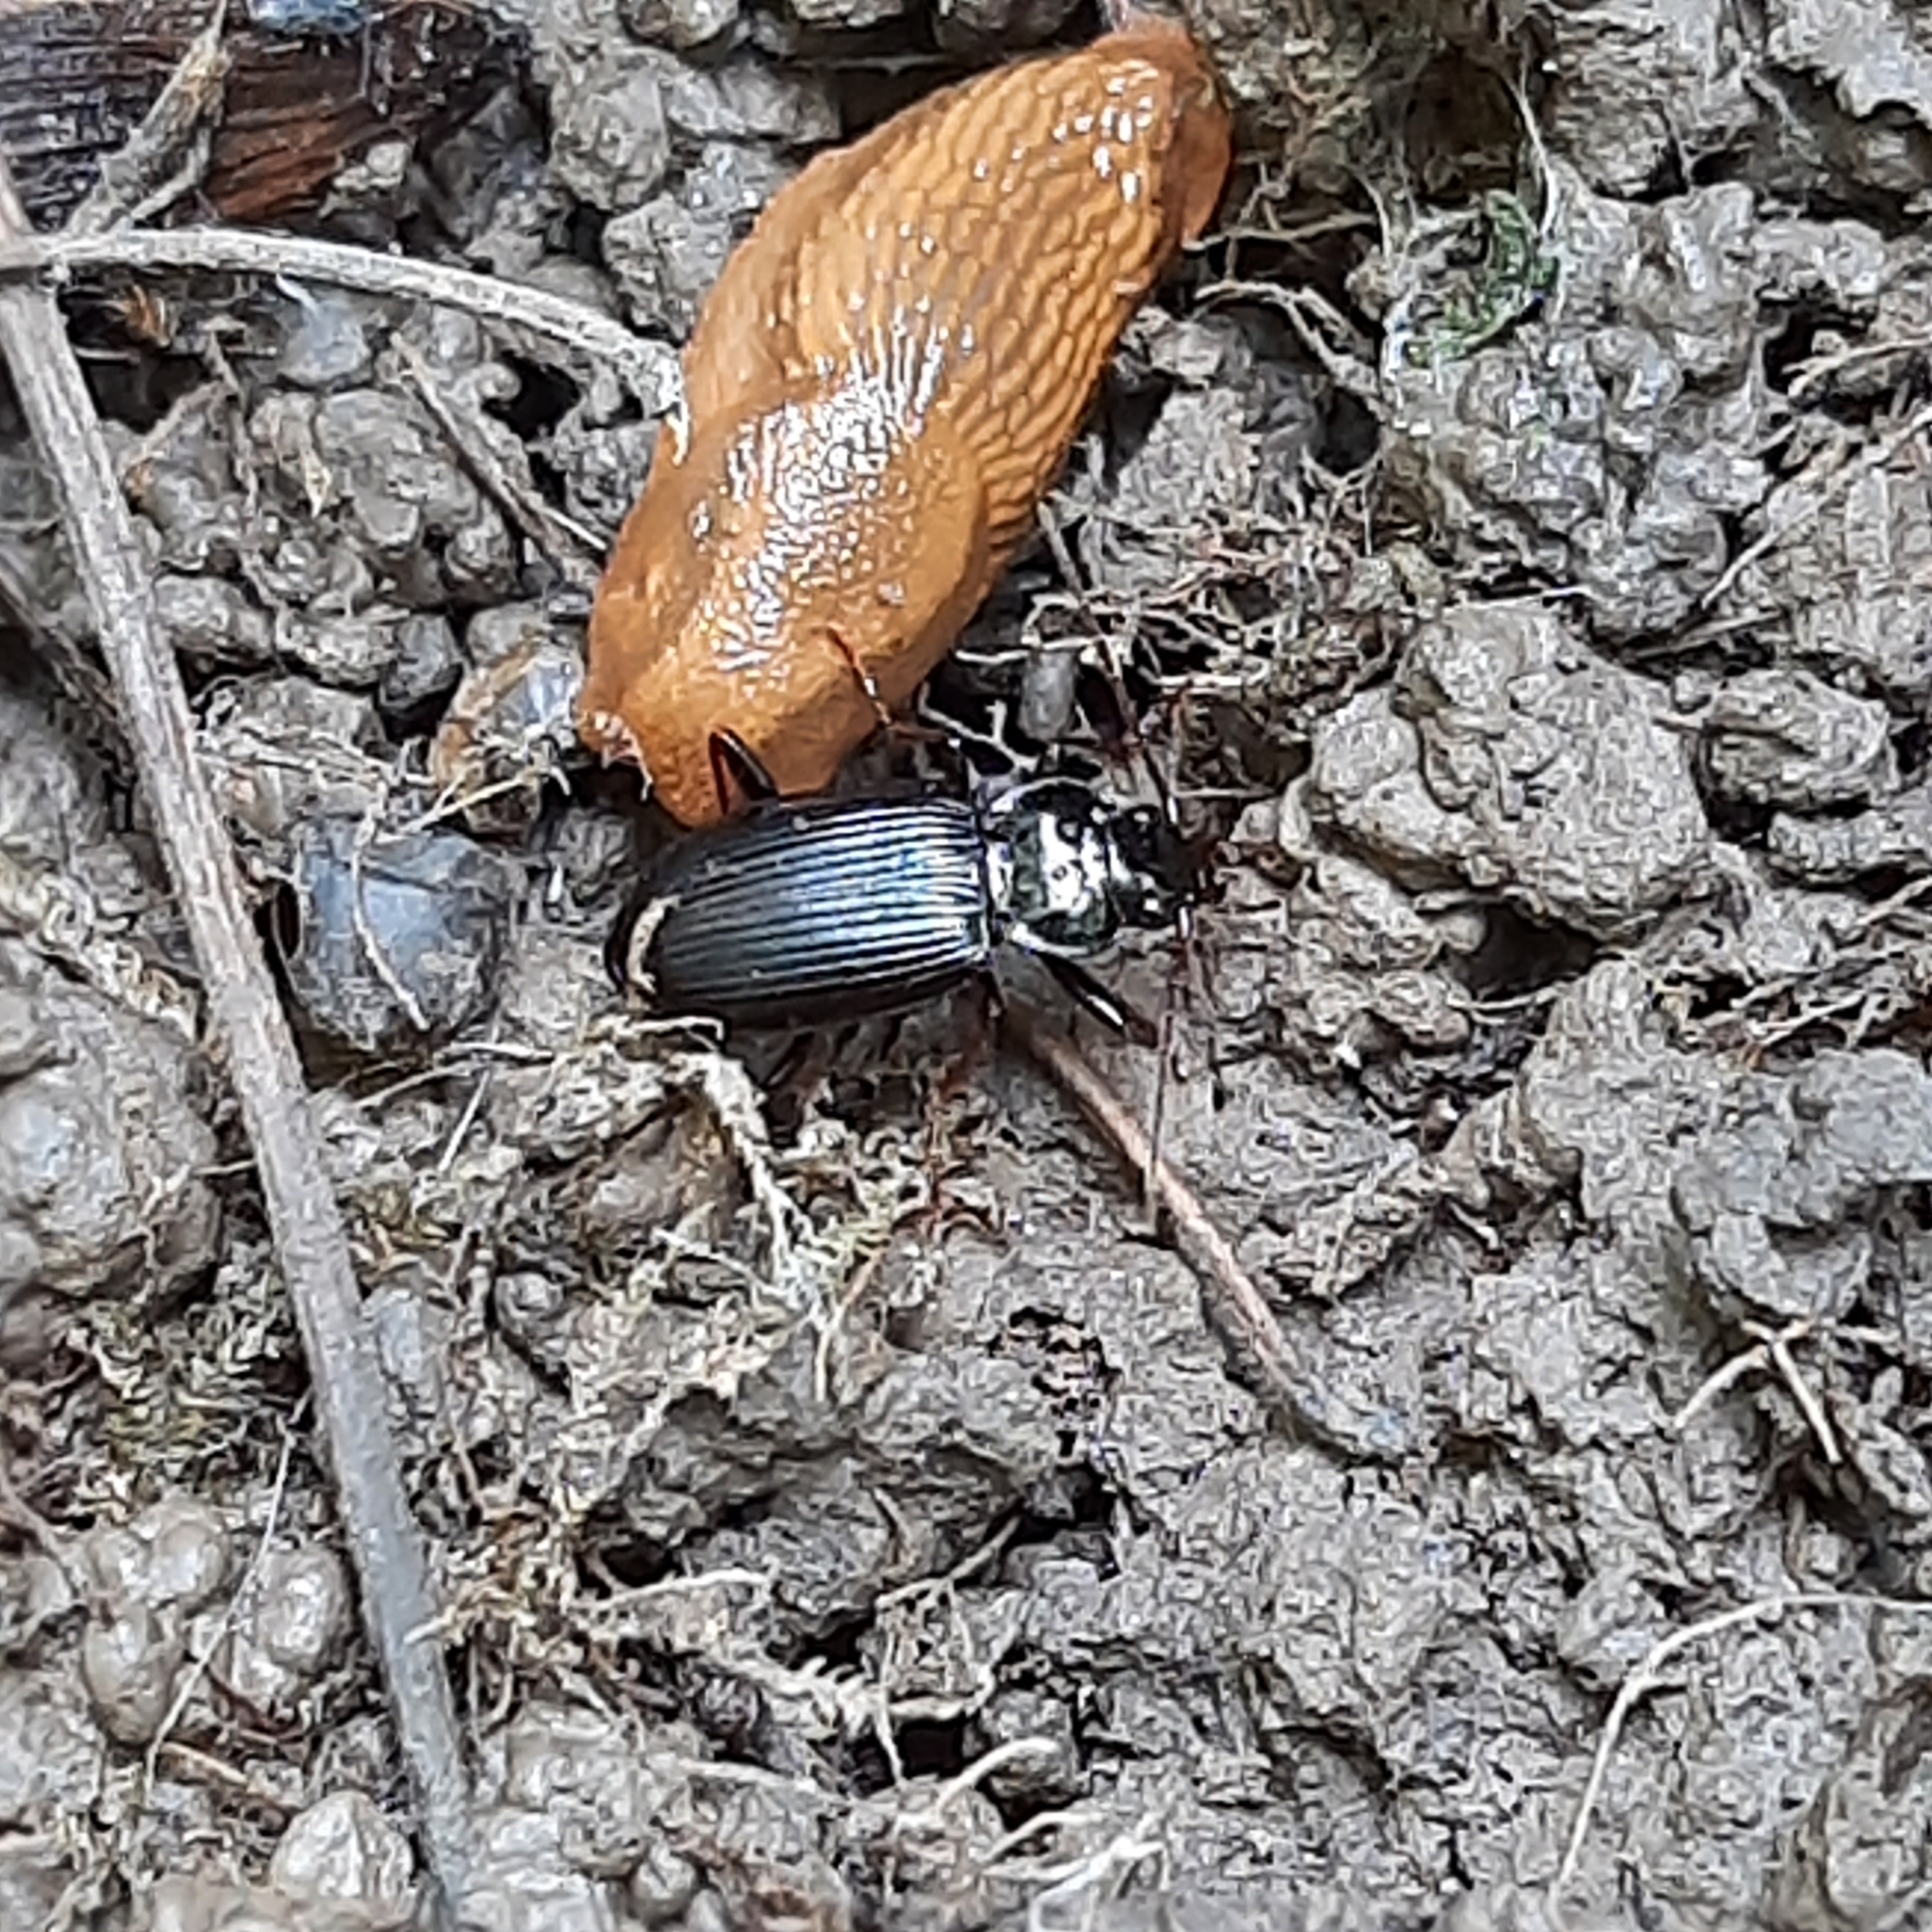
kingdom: Animalia
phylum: Mollusca
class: Gastropoda
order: Stylommatophora
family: Arionidae
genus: Arion
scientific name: Arion vulgaris
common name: Lusitanian slug
